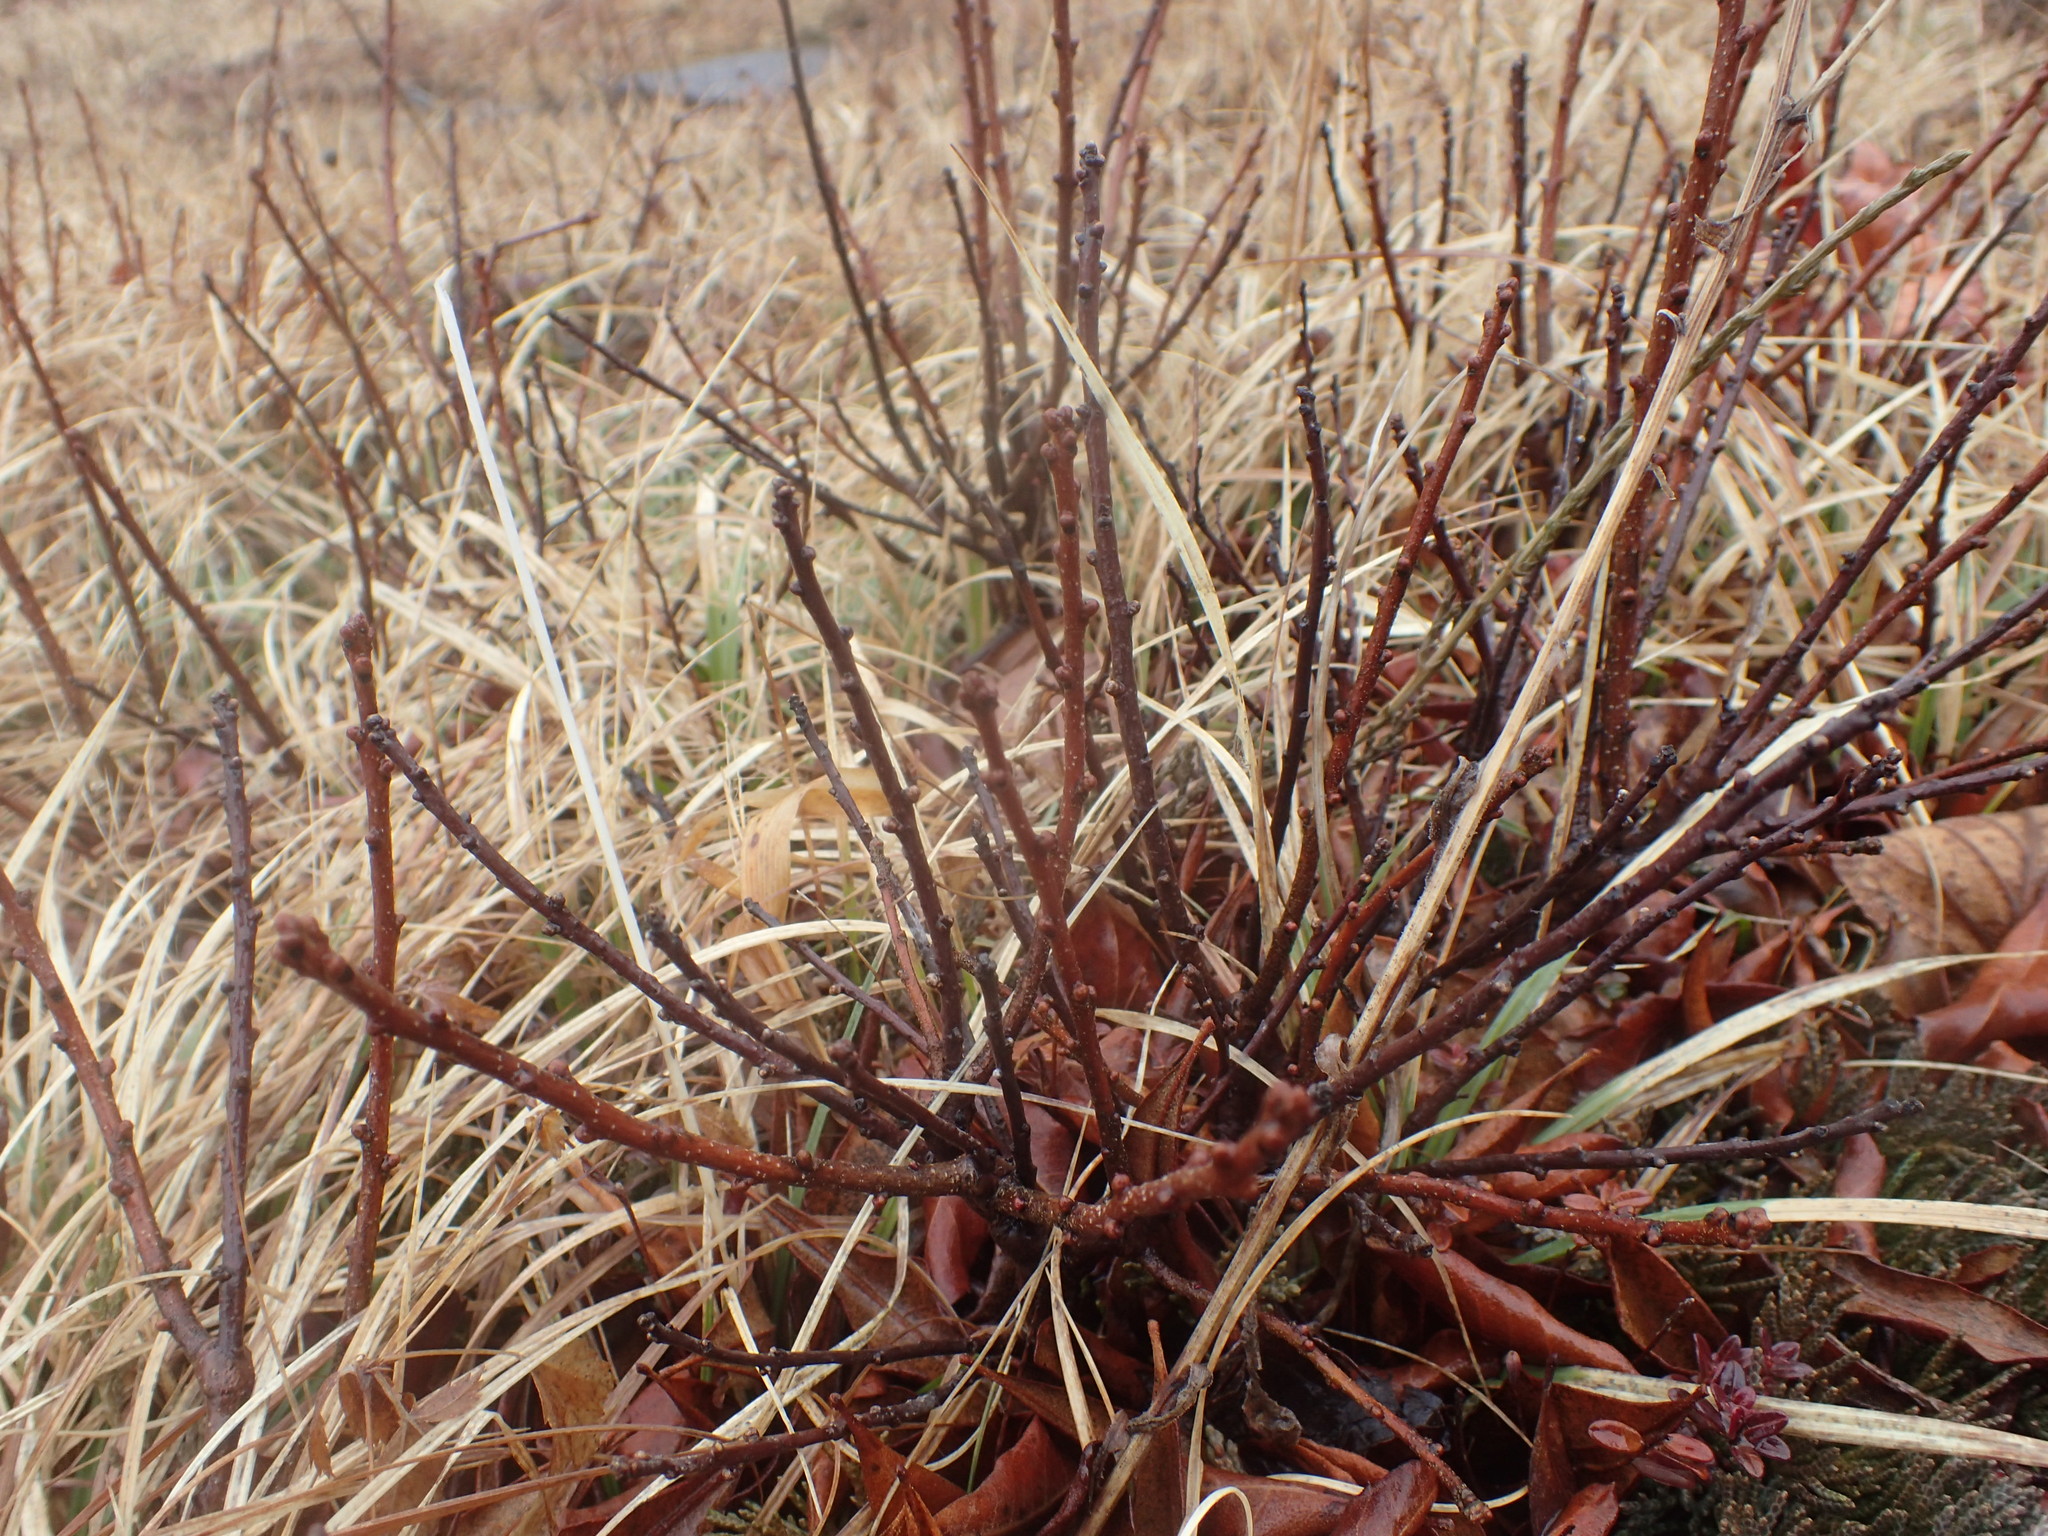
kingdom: Plantae
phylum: Tracheophyta
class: Magnoliopsida
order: Fagales
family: Myricaceae
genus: Morella
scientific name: Morella pensylvanica
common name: Northern bayberry
